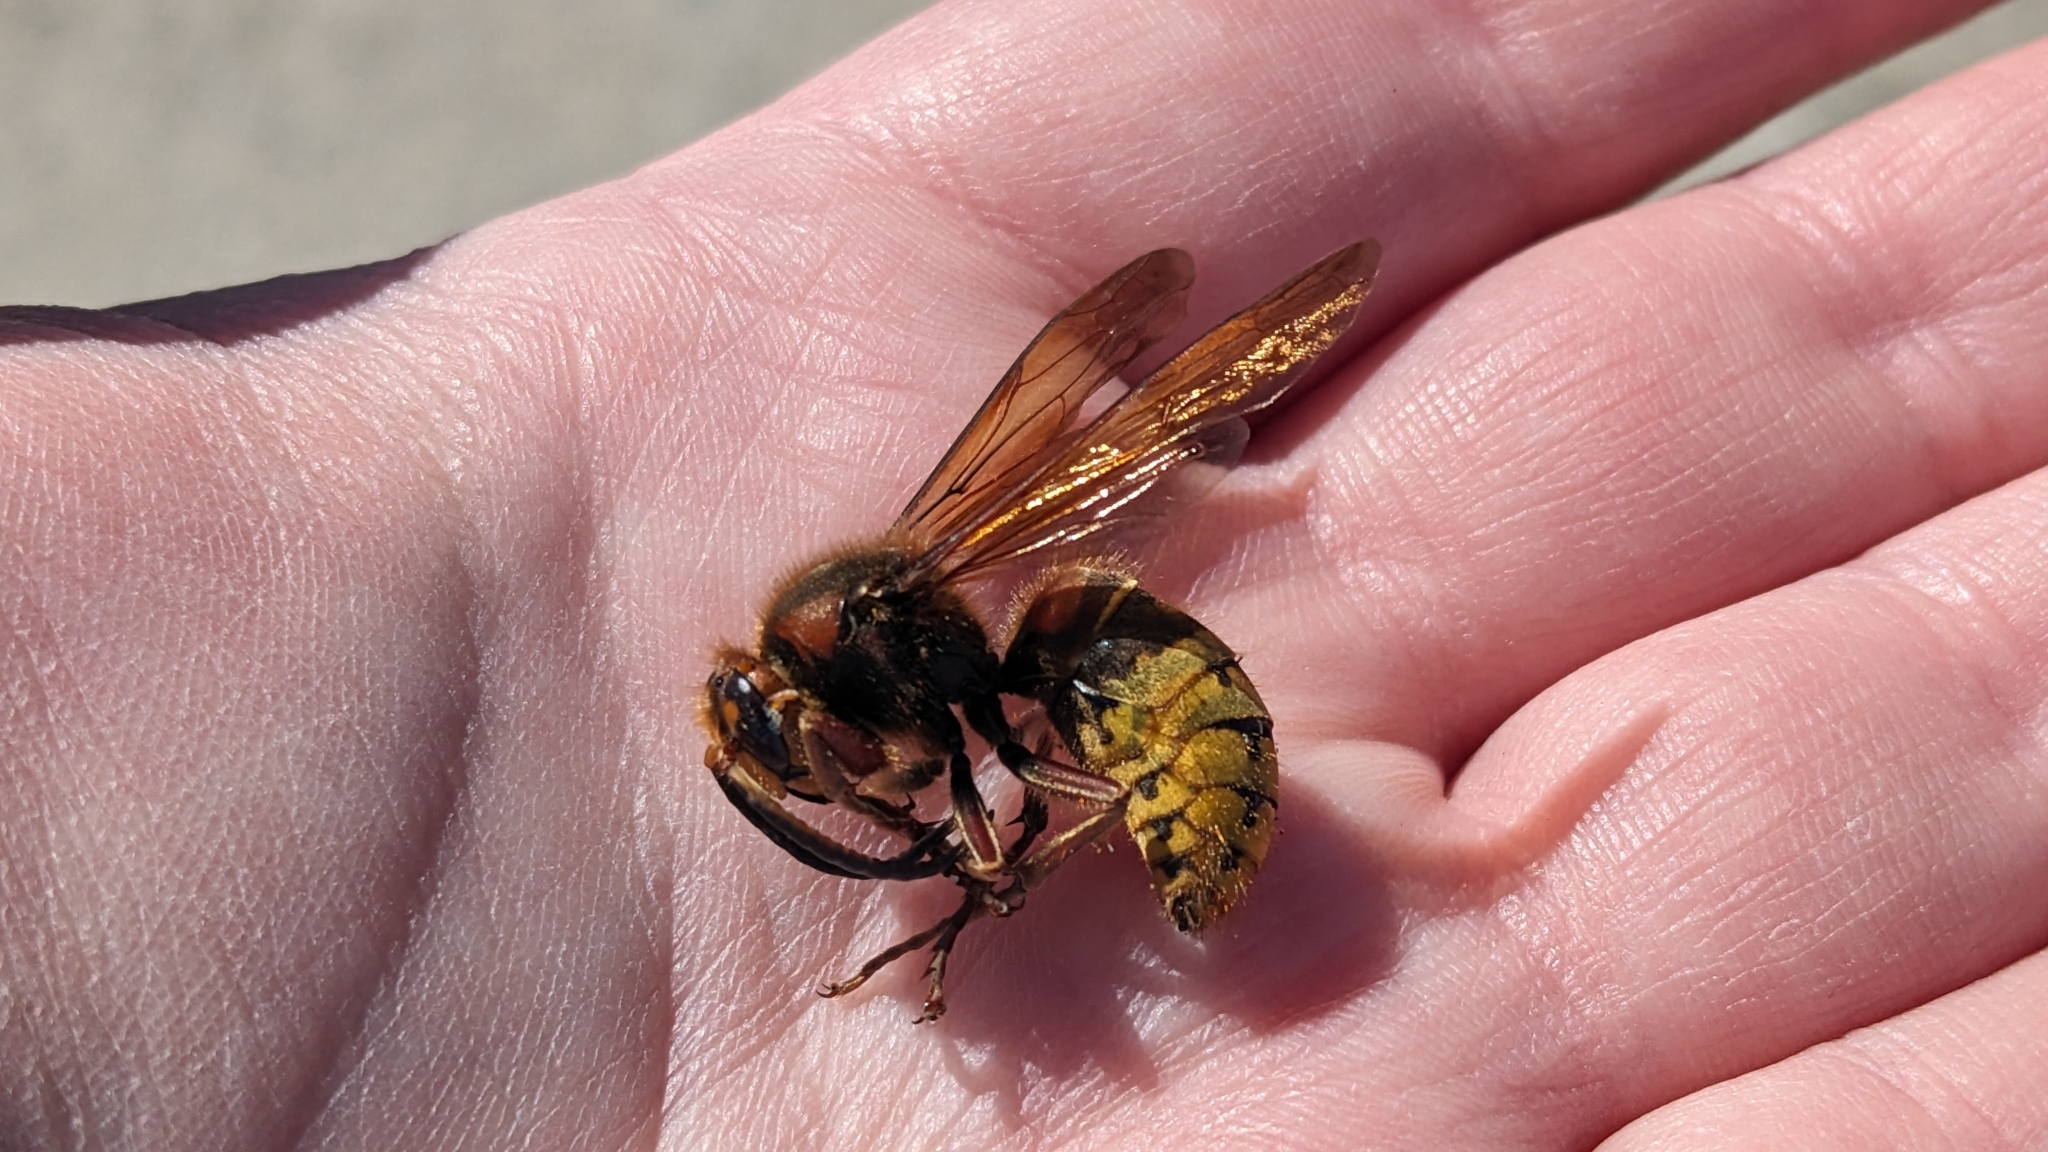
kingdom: Animalia
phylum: Arthropoda
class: Insecta
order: Hymenoptera
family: Vespidae
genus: Vespa
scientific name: Vespa crabro
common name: Hornet
